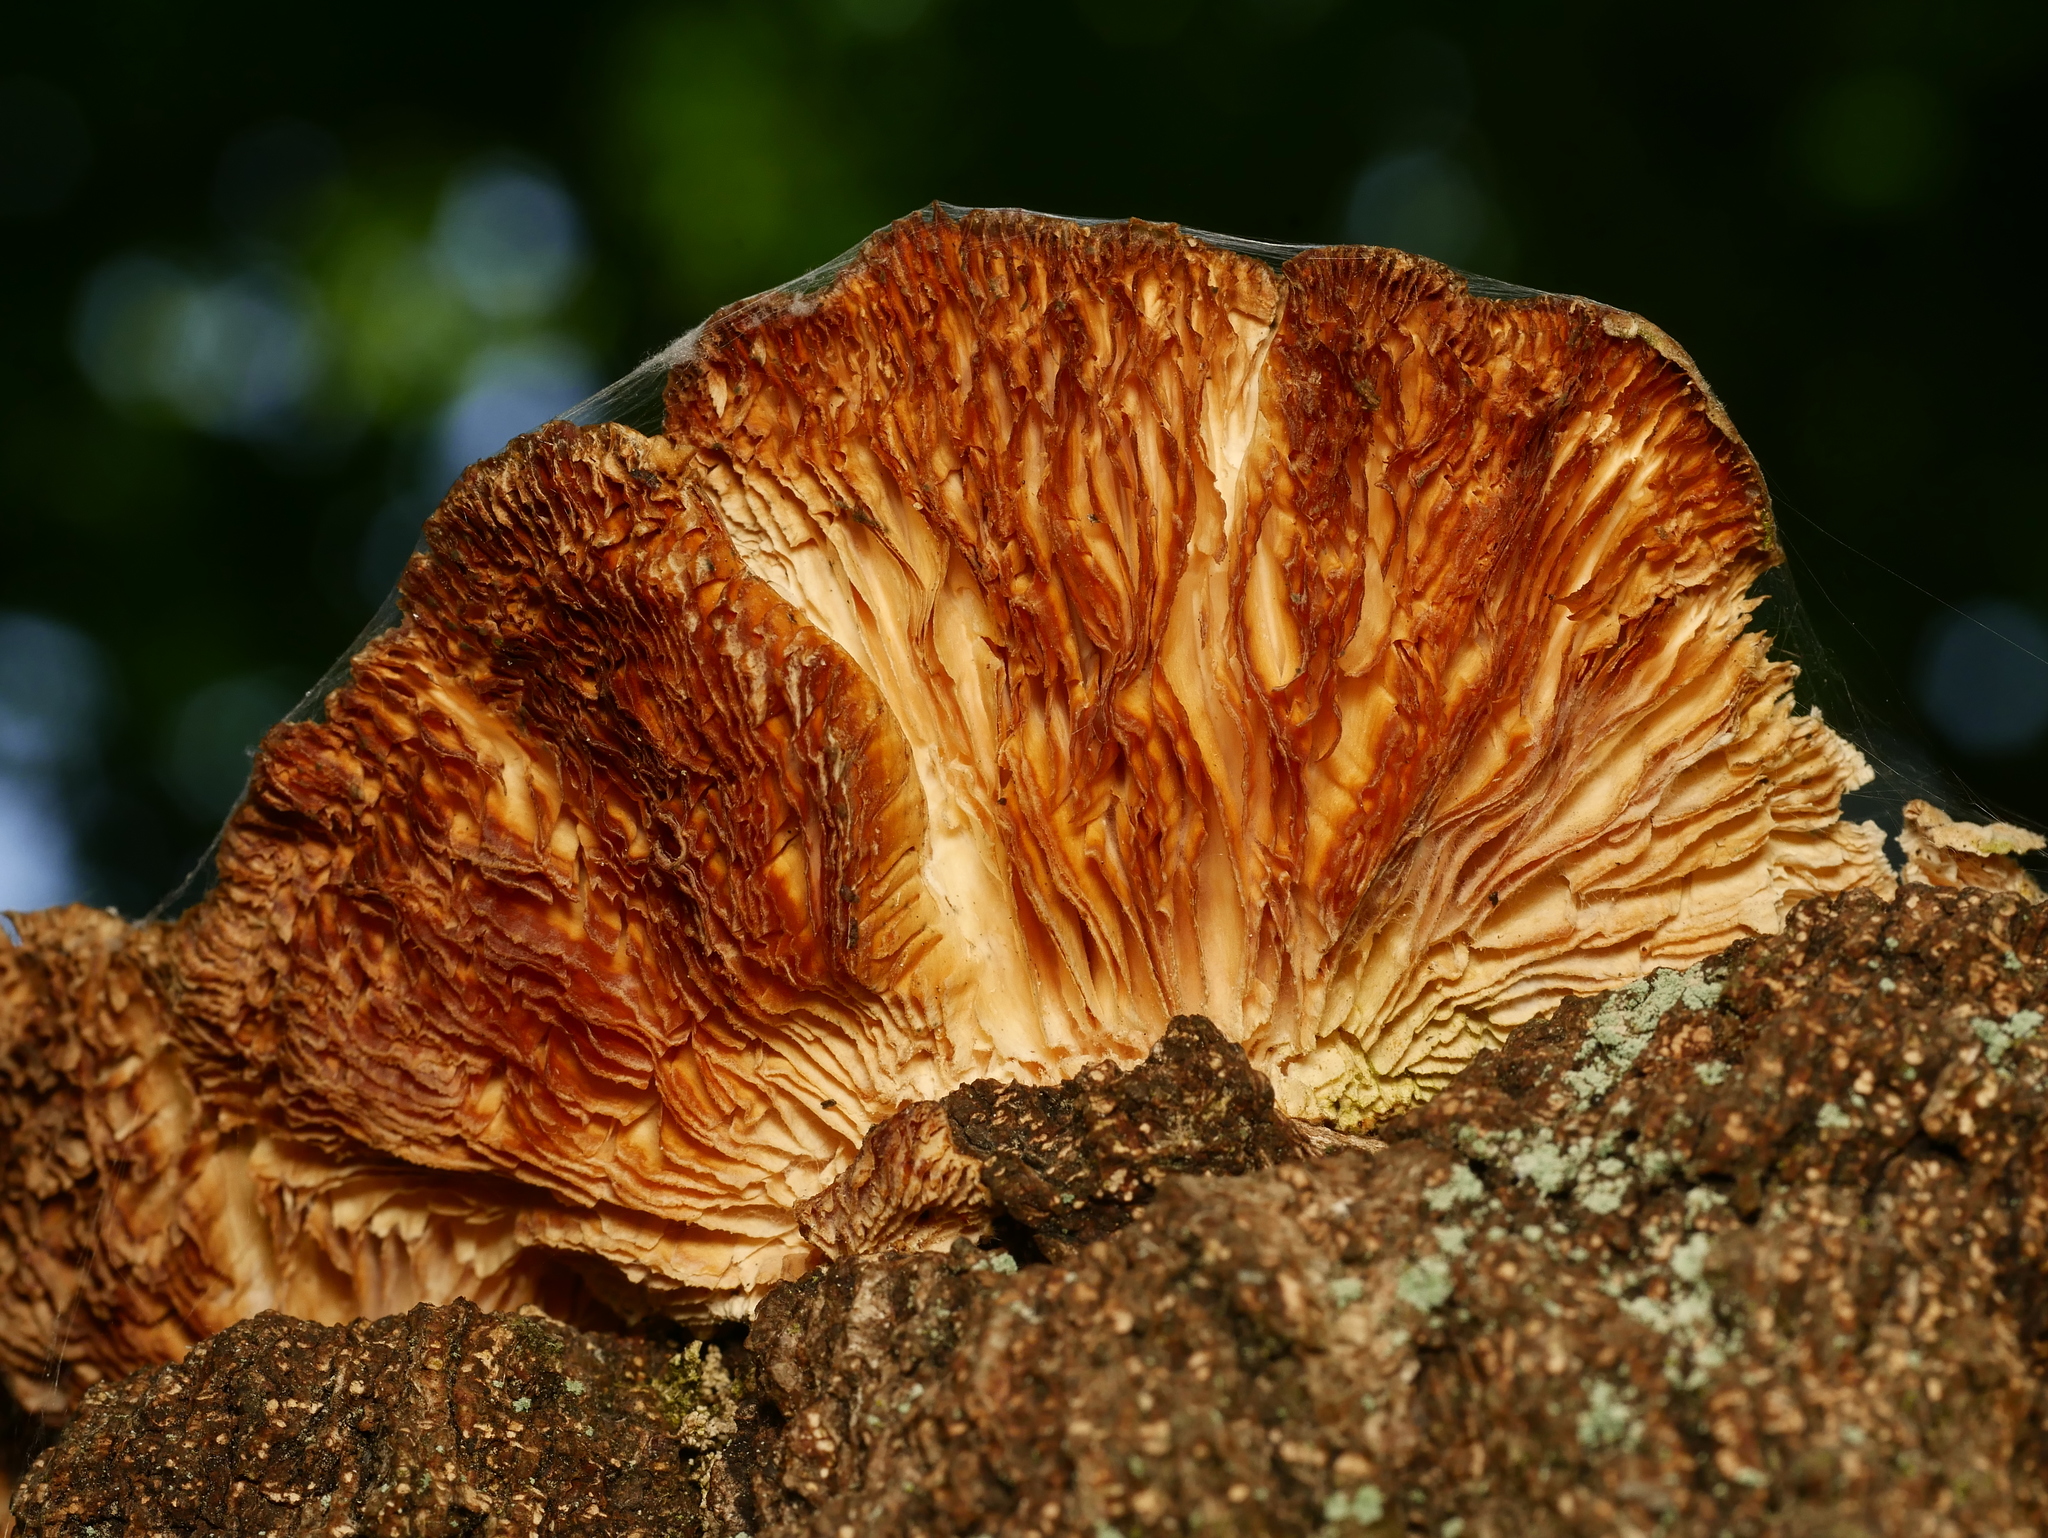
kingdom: Fungi
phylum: Basidiomycota
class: Agaricomycetes
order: Polyporales
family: Polyporaceae
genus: Lenzites
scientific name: Lenzites betulinus
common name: Birch mazegill
